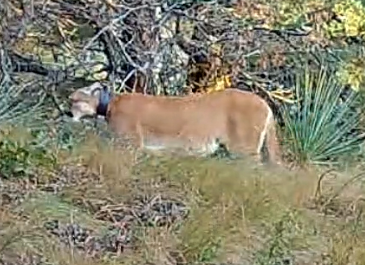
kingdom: Animalia
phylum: Chordata
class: Mammalia
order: Carnivora
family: Felidae
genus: Puma
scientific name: Puma concolor
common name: Puma
